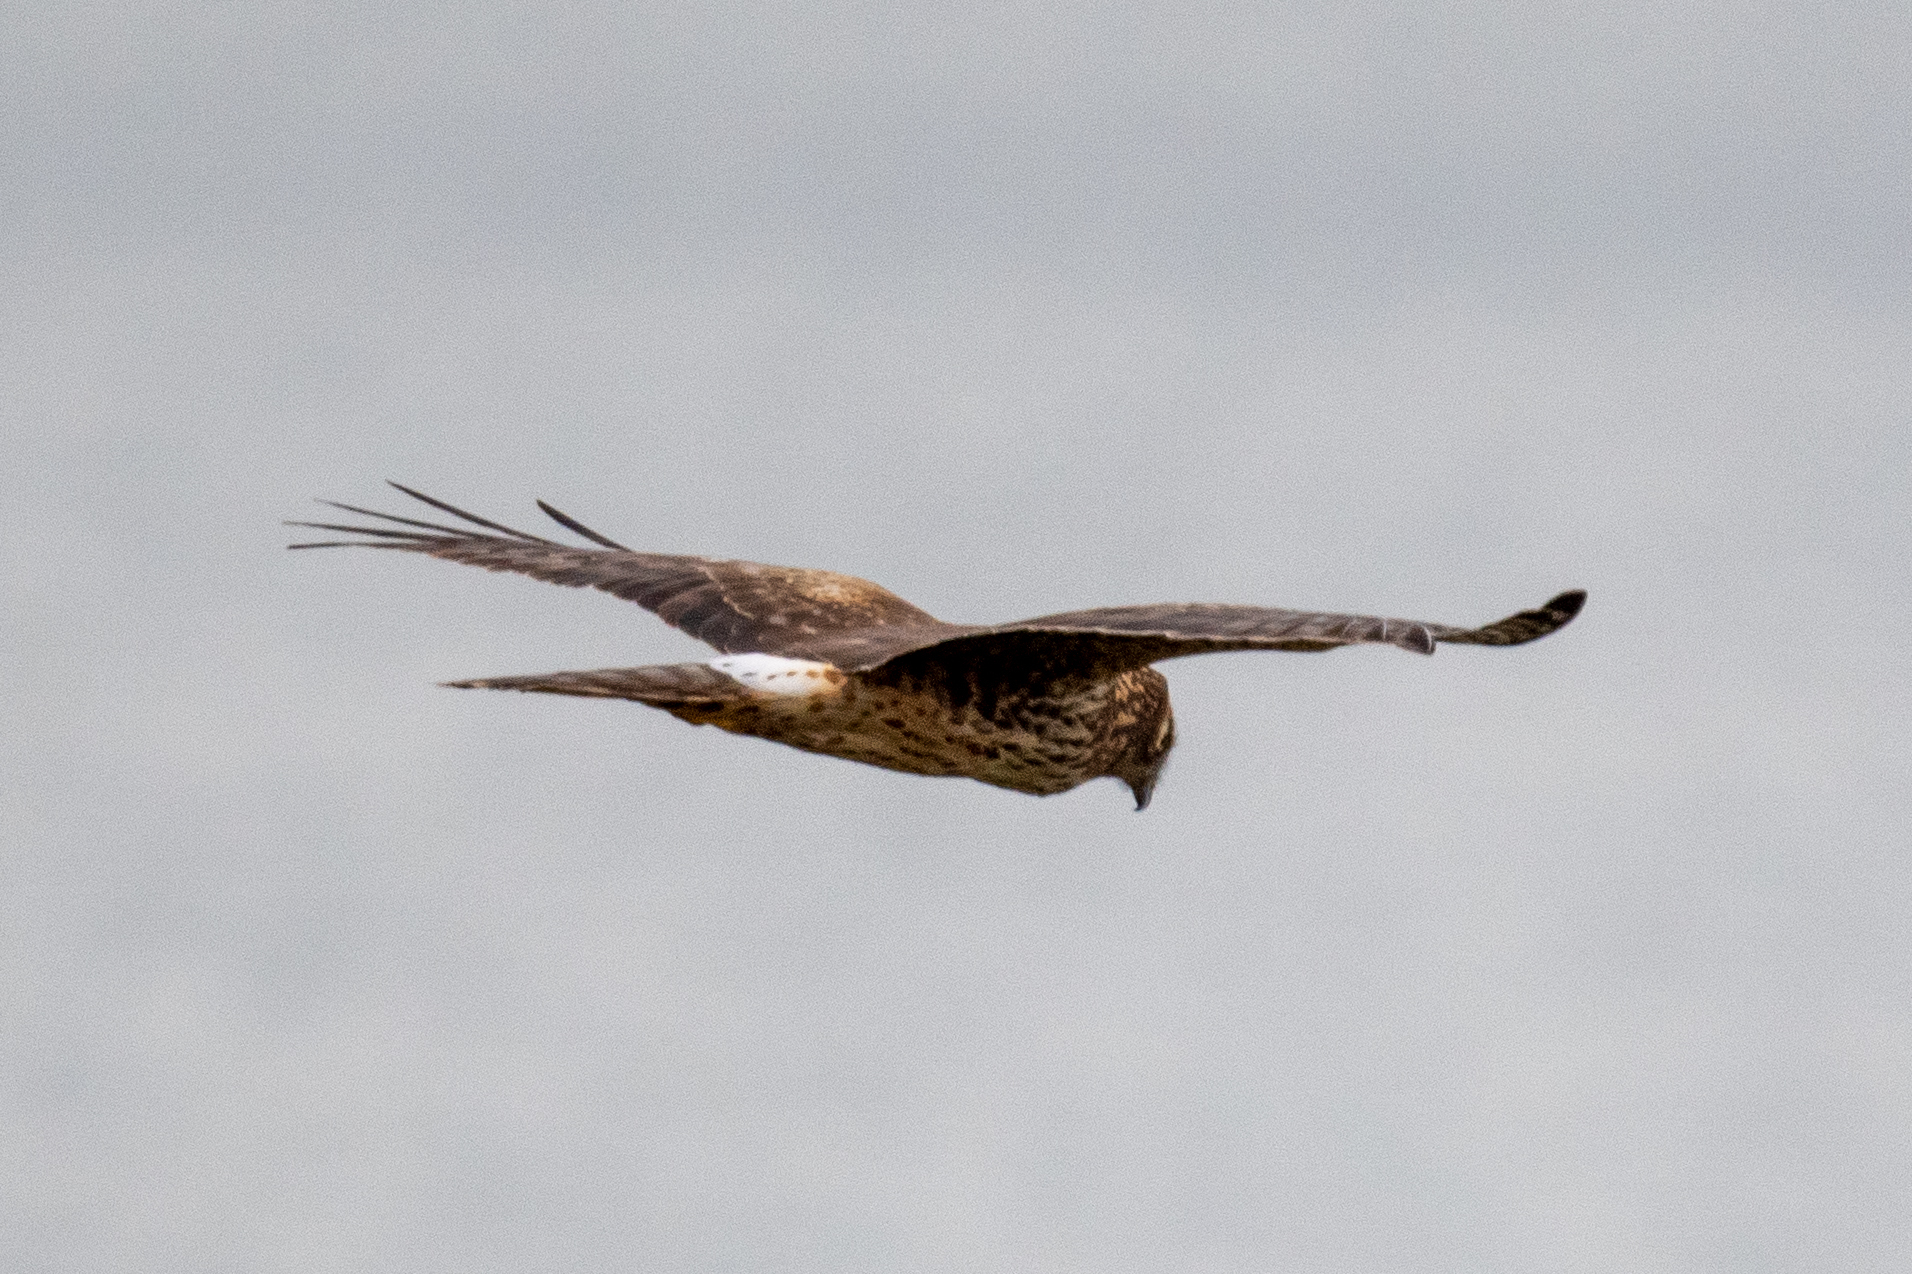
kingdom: Animalia
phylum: Chordata
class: Aves
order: Accipitriformes
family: Accipitridae
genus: Circus
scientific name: Circus cyaneus
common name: Hen harrier
